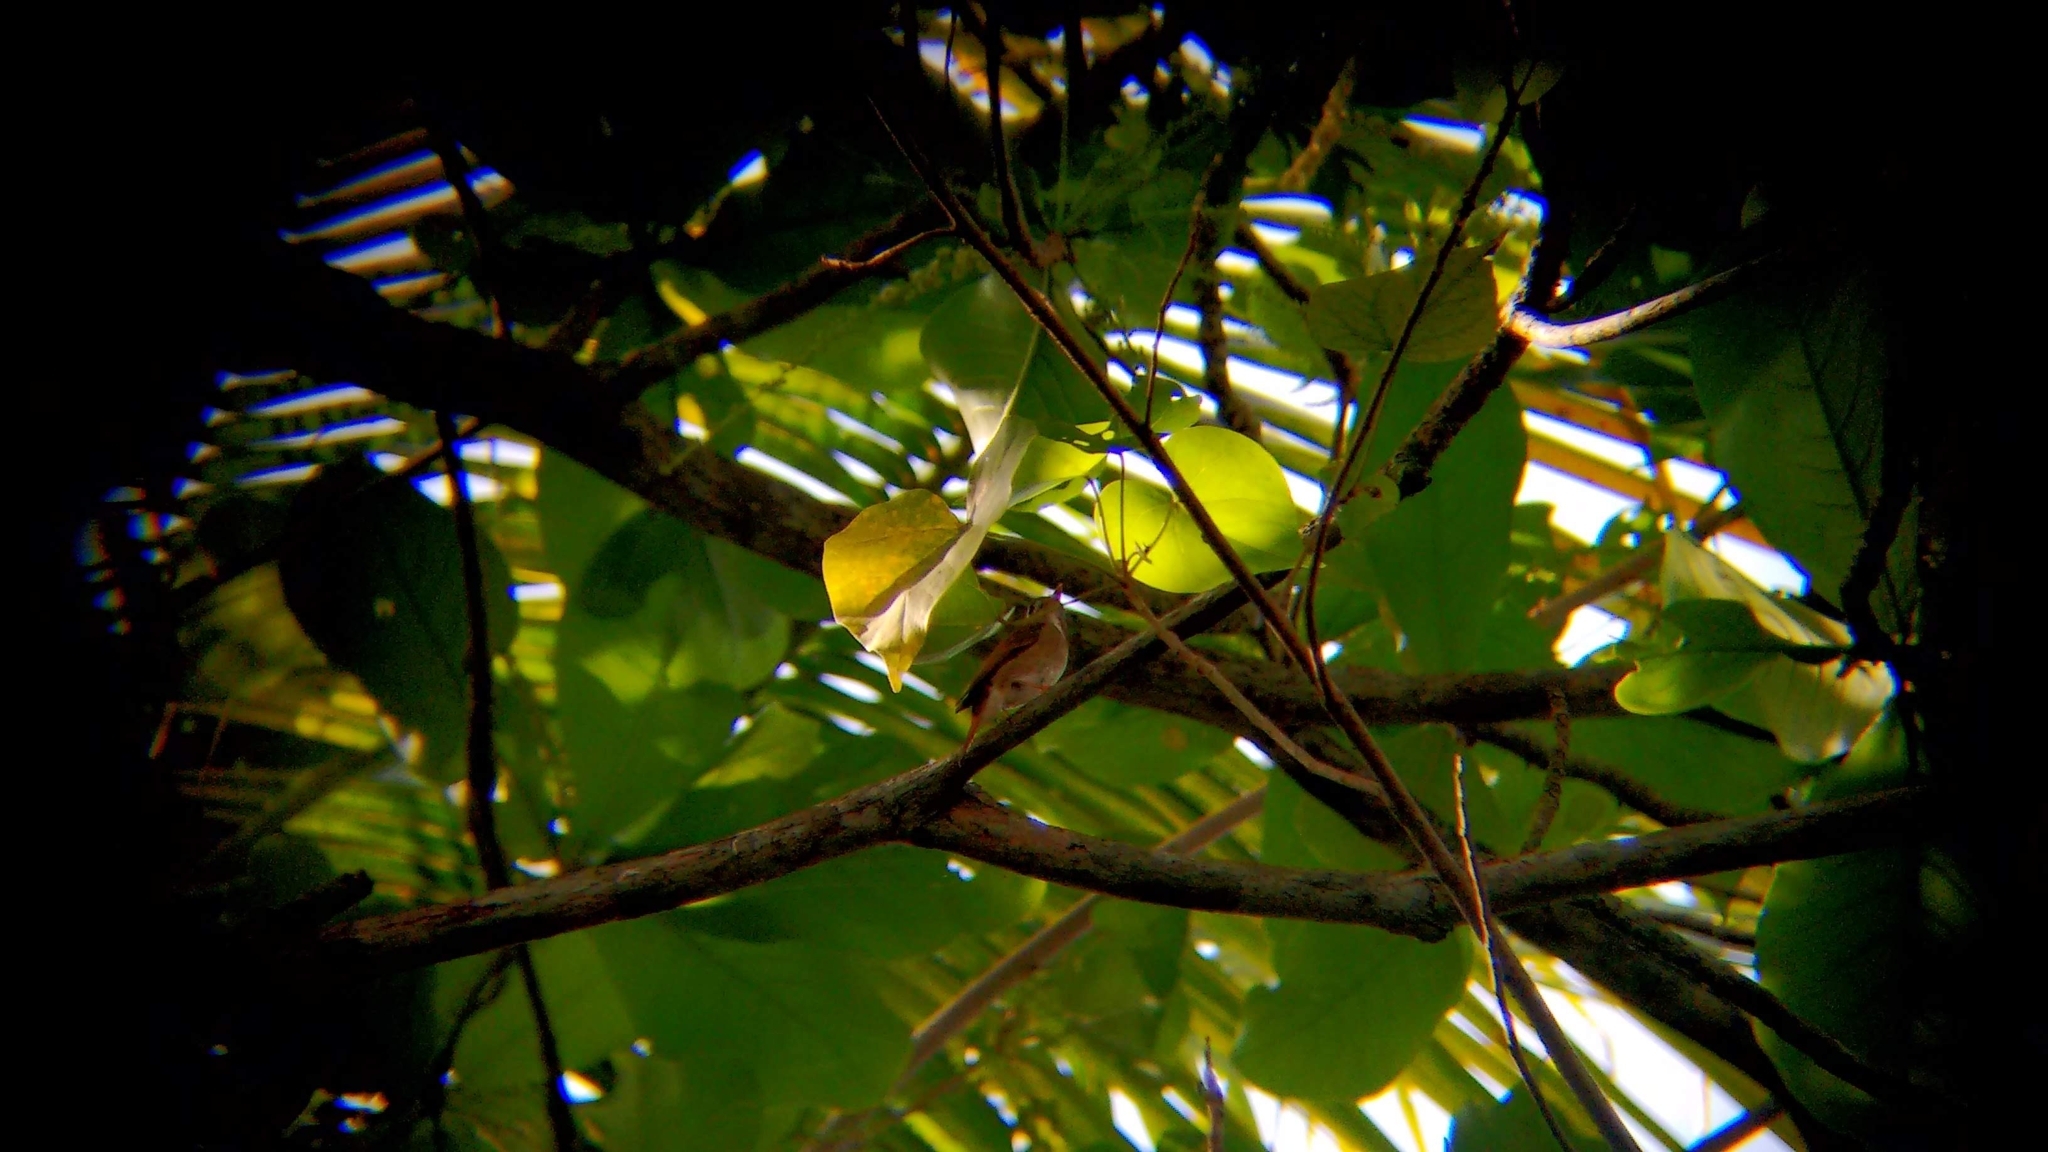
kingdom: Animalia
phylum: Chordata
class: Aves
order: Passeriformes
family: Muscicapidae
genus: Muscicapa
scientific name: Muscicapa muttui
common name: Brown-breasted flycatcher
